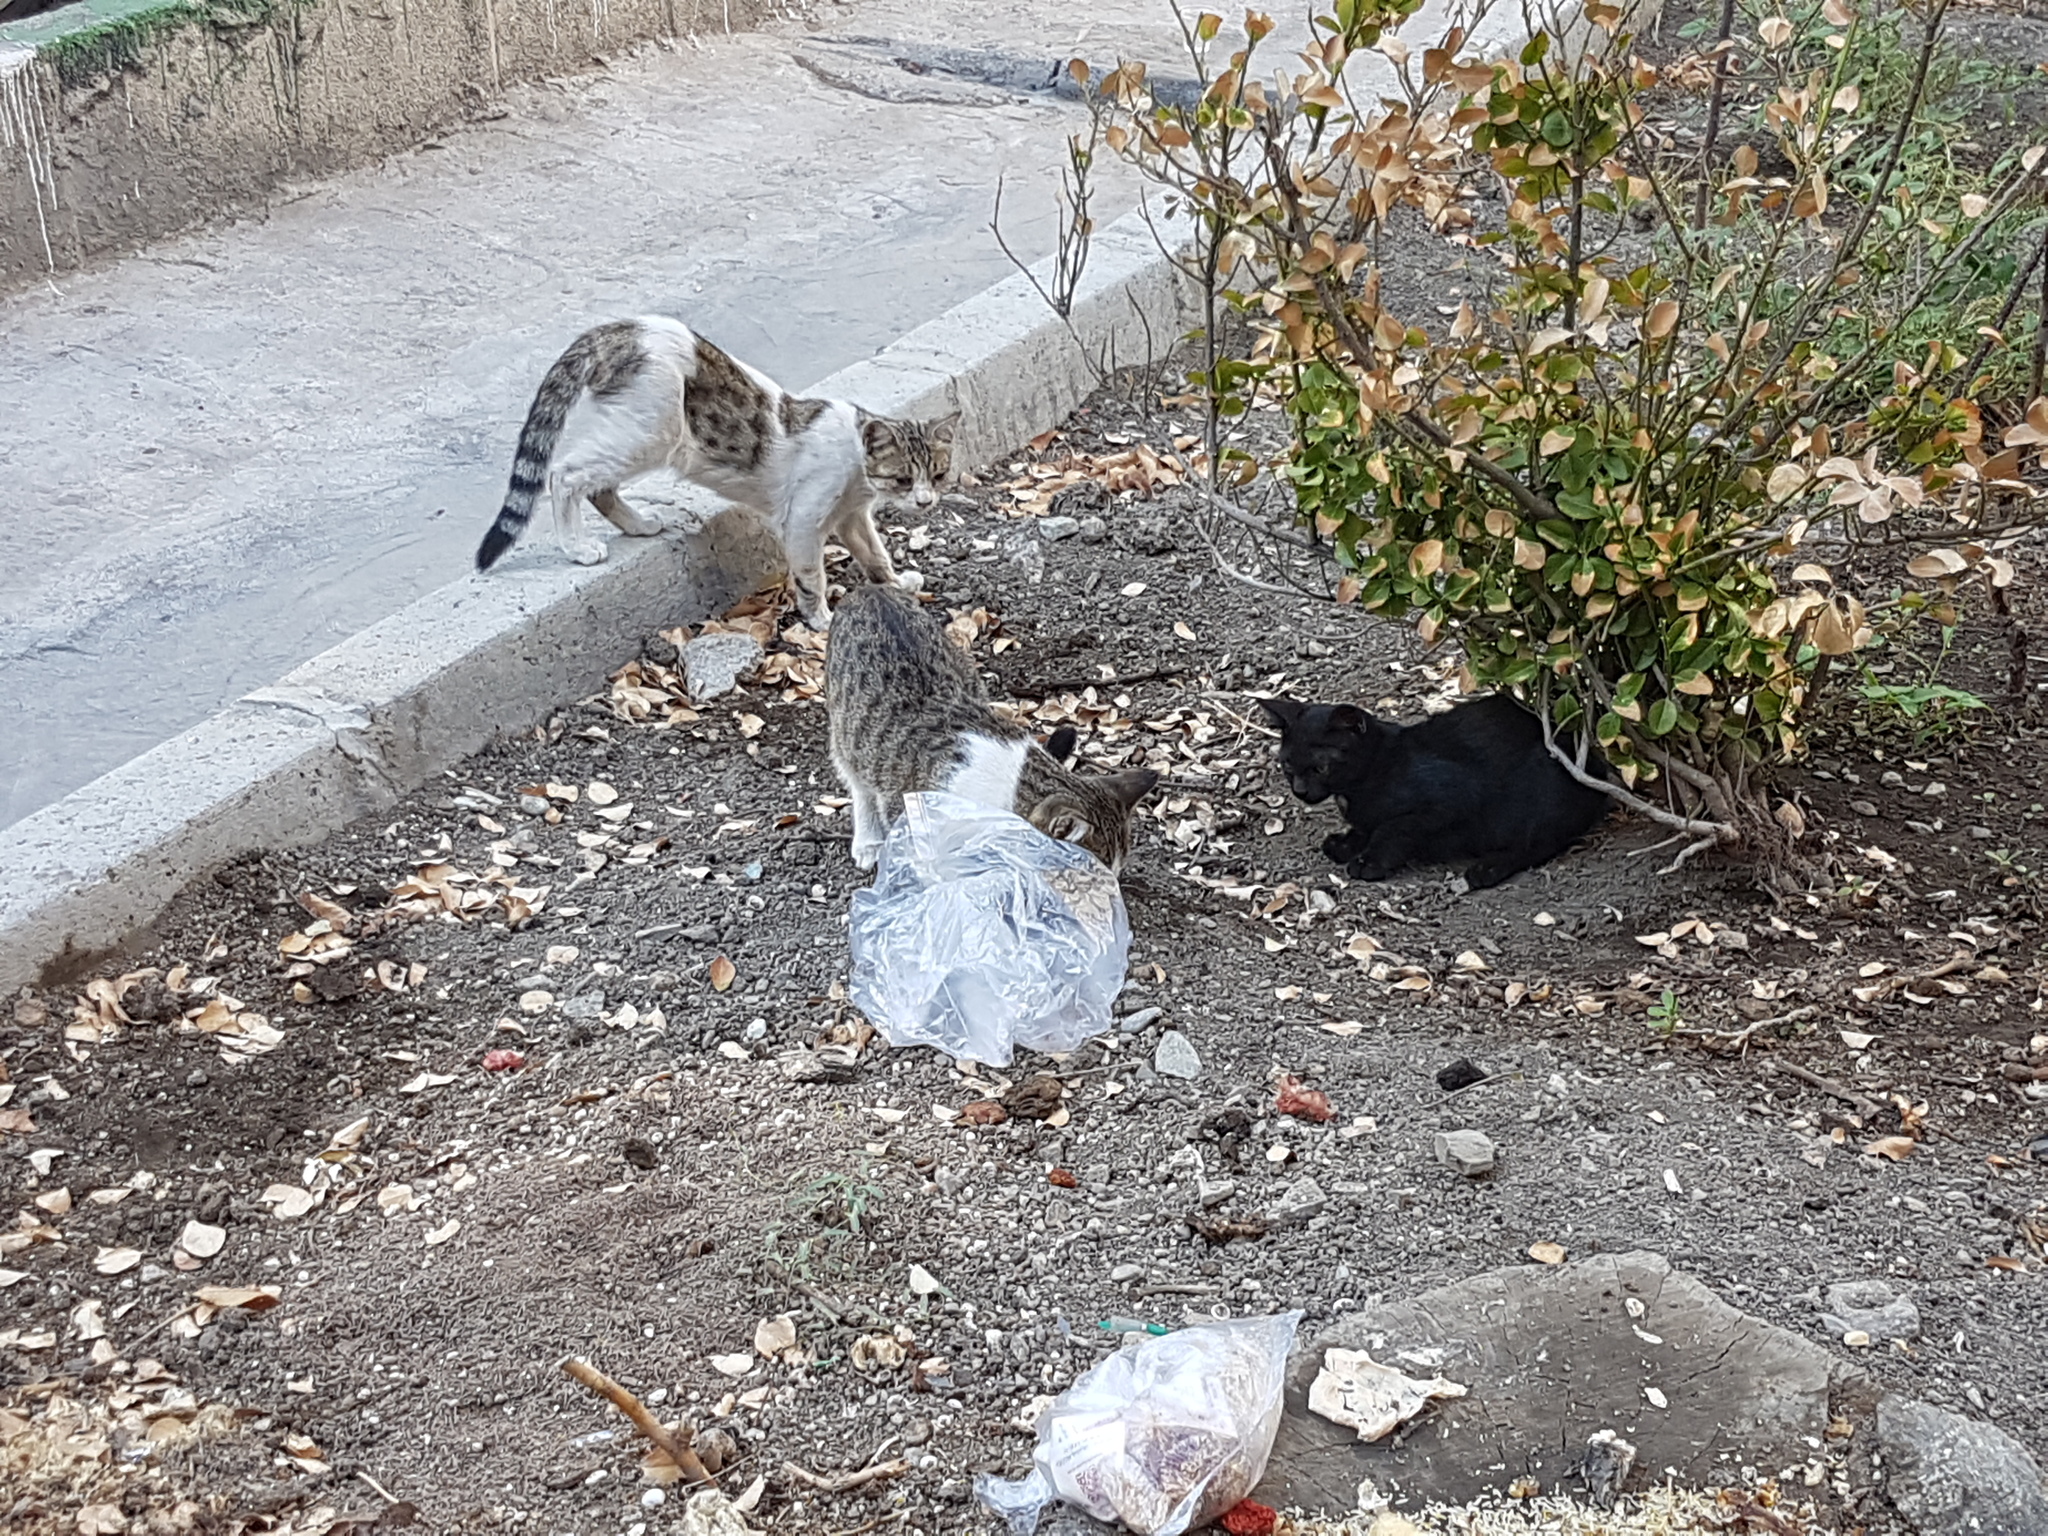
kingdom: Animalia
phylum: Chordata
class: Mammalia
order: Carnivora
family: Felidae
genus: Felis
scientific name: Felis catus
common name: Domestic cat
